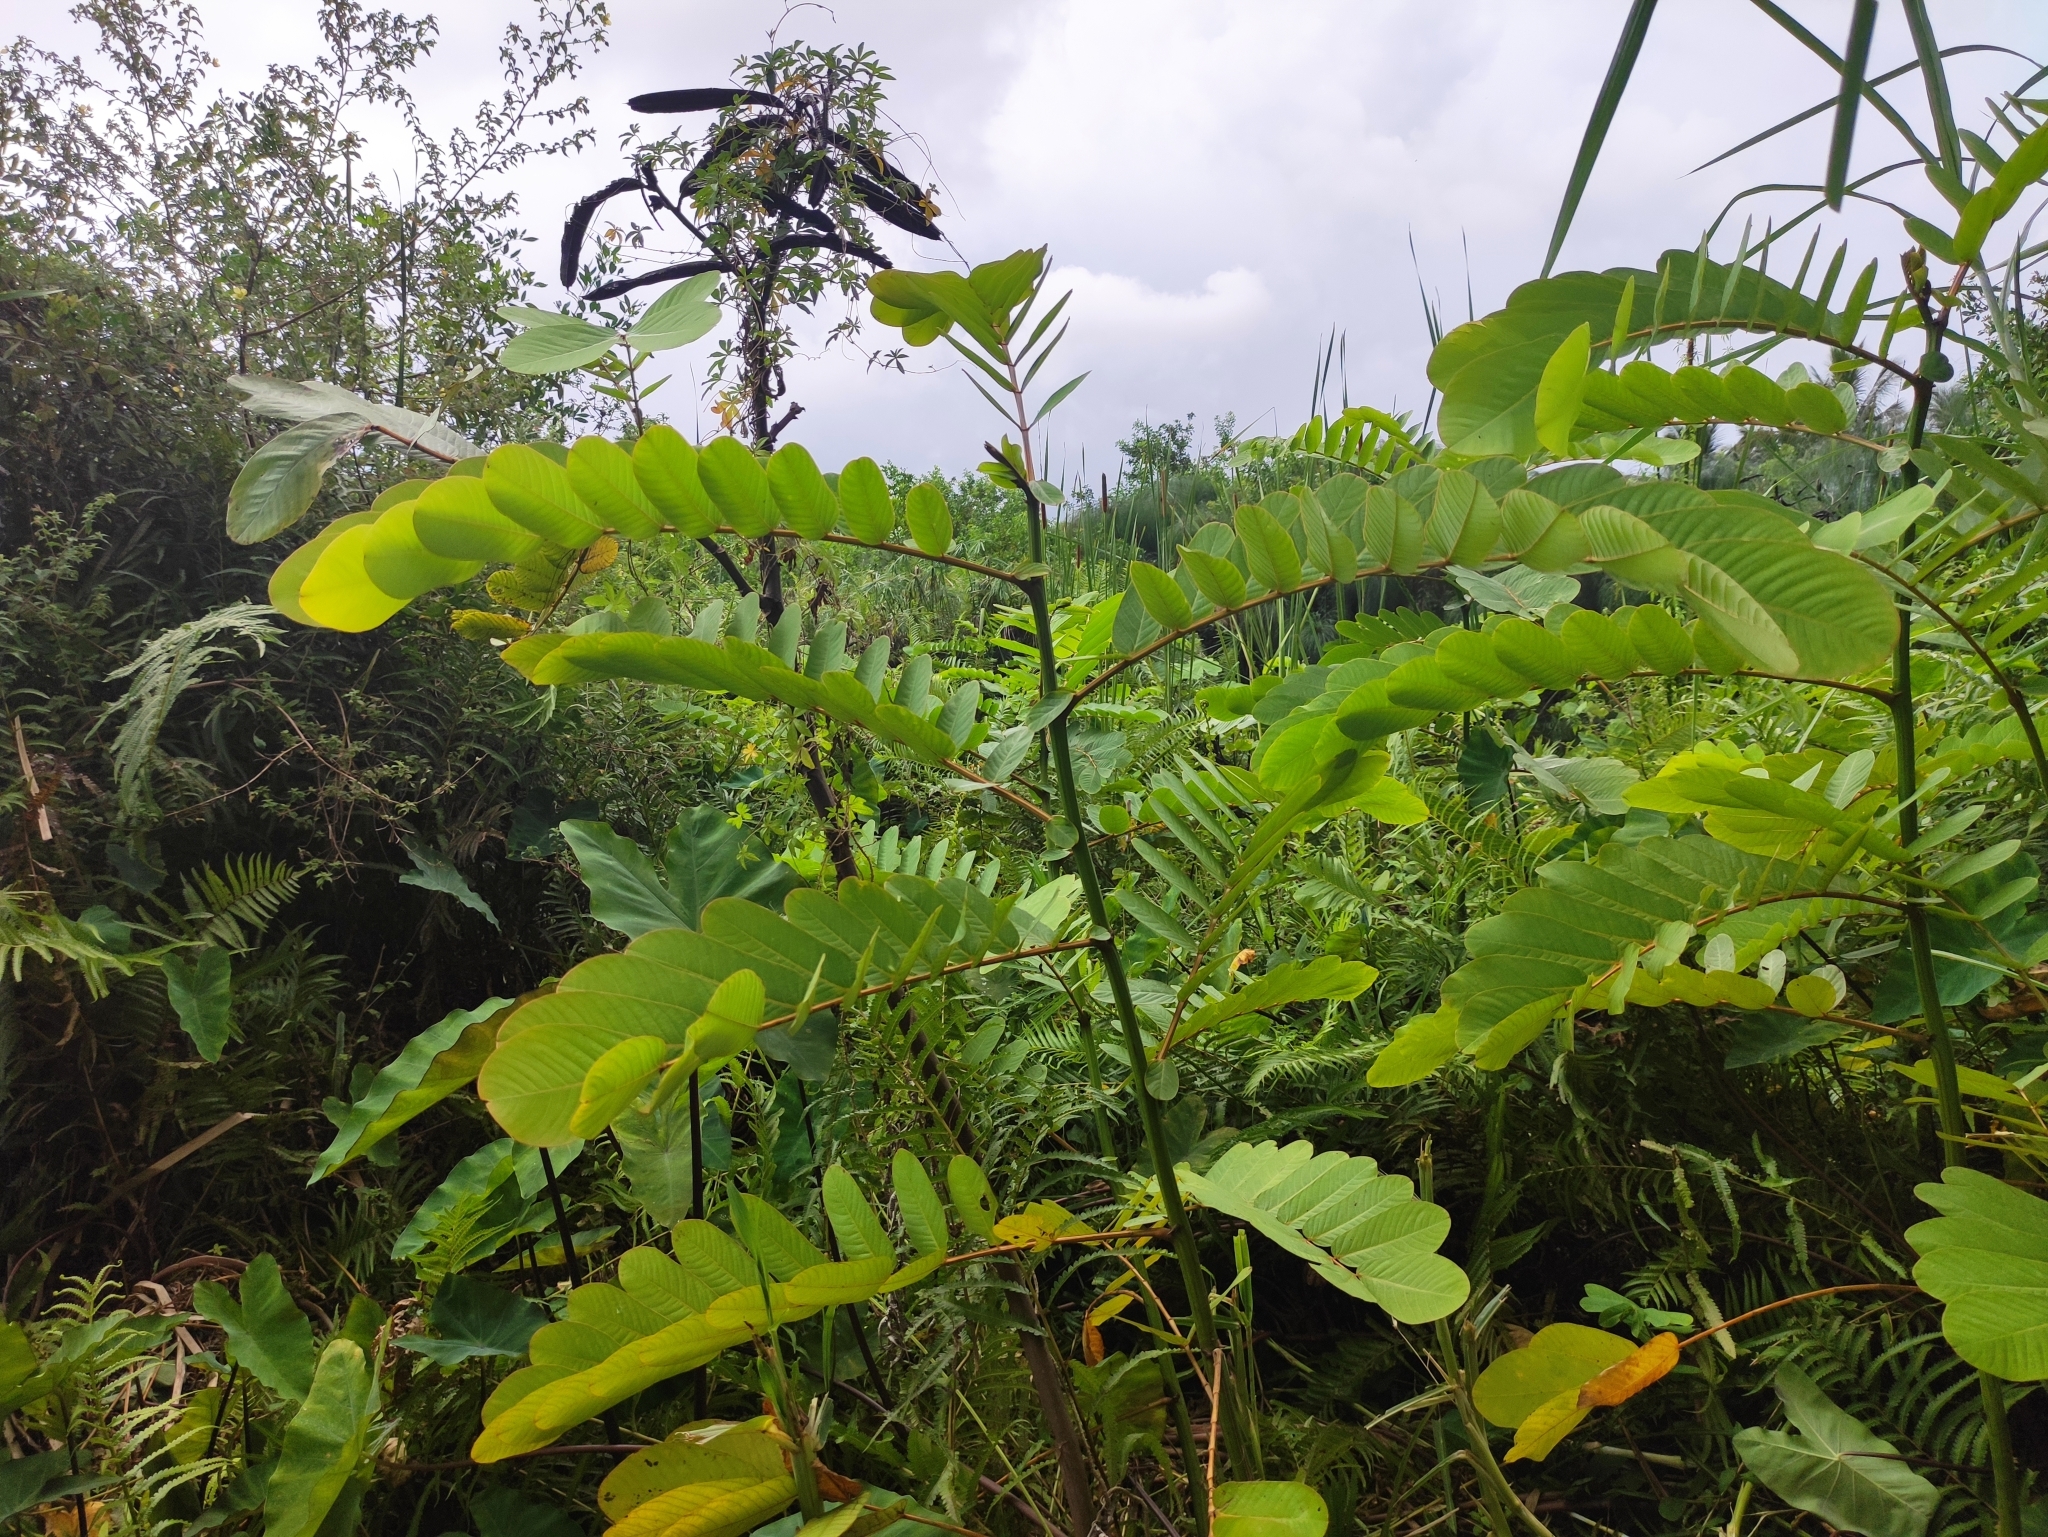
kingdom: Plantae
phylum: Tracheophyta
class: Magnoliopsida
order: Fabales
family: Fabaceae
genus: Senna
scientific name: Senna alata
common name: Emperor's candlesticks
